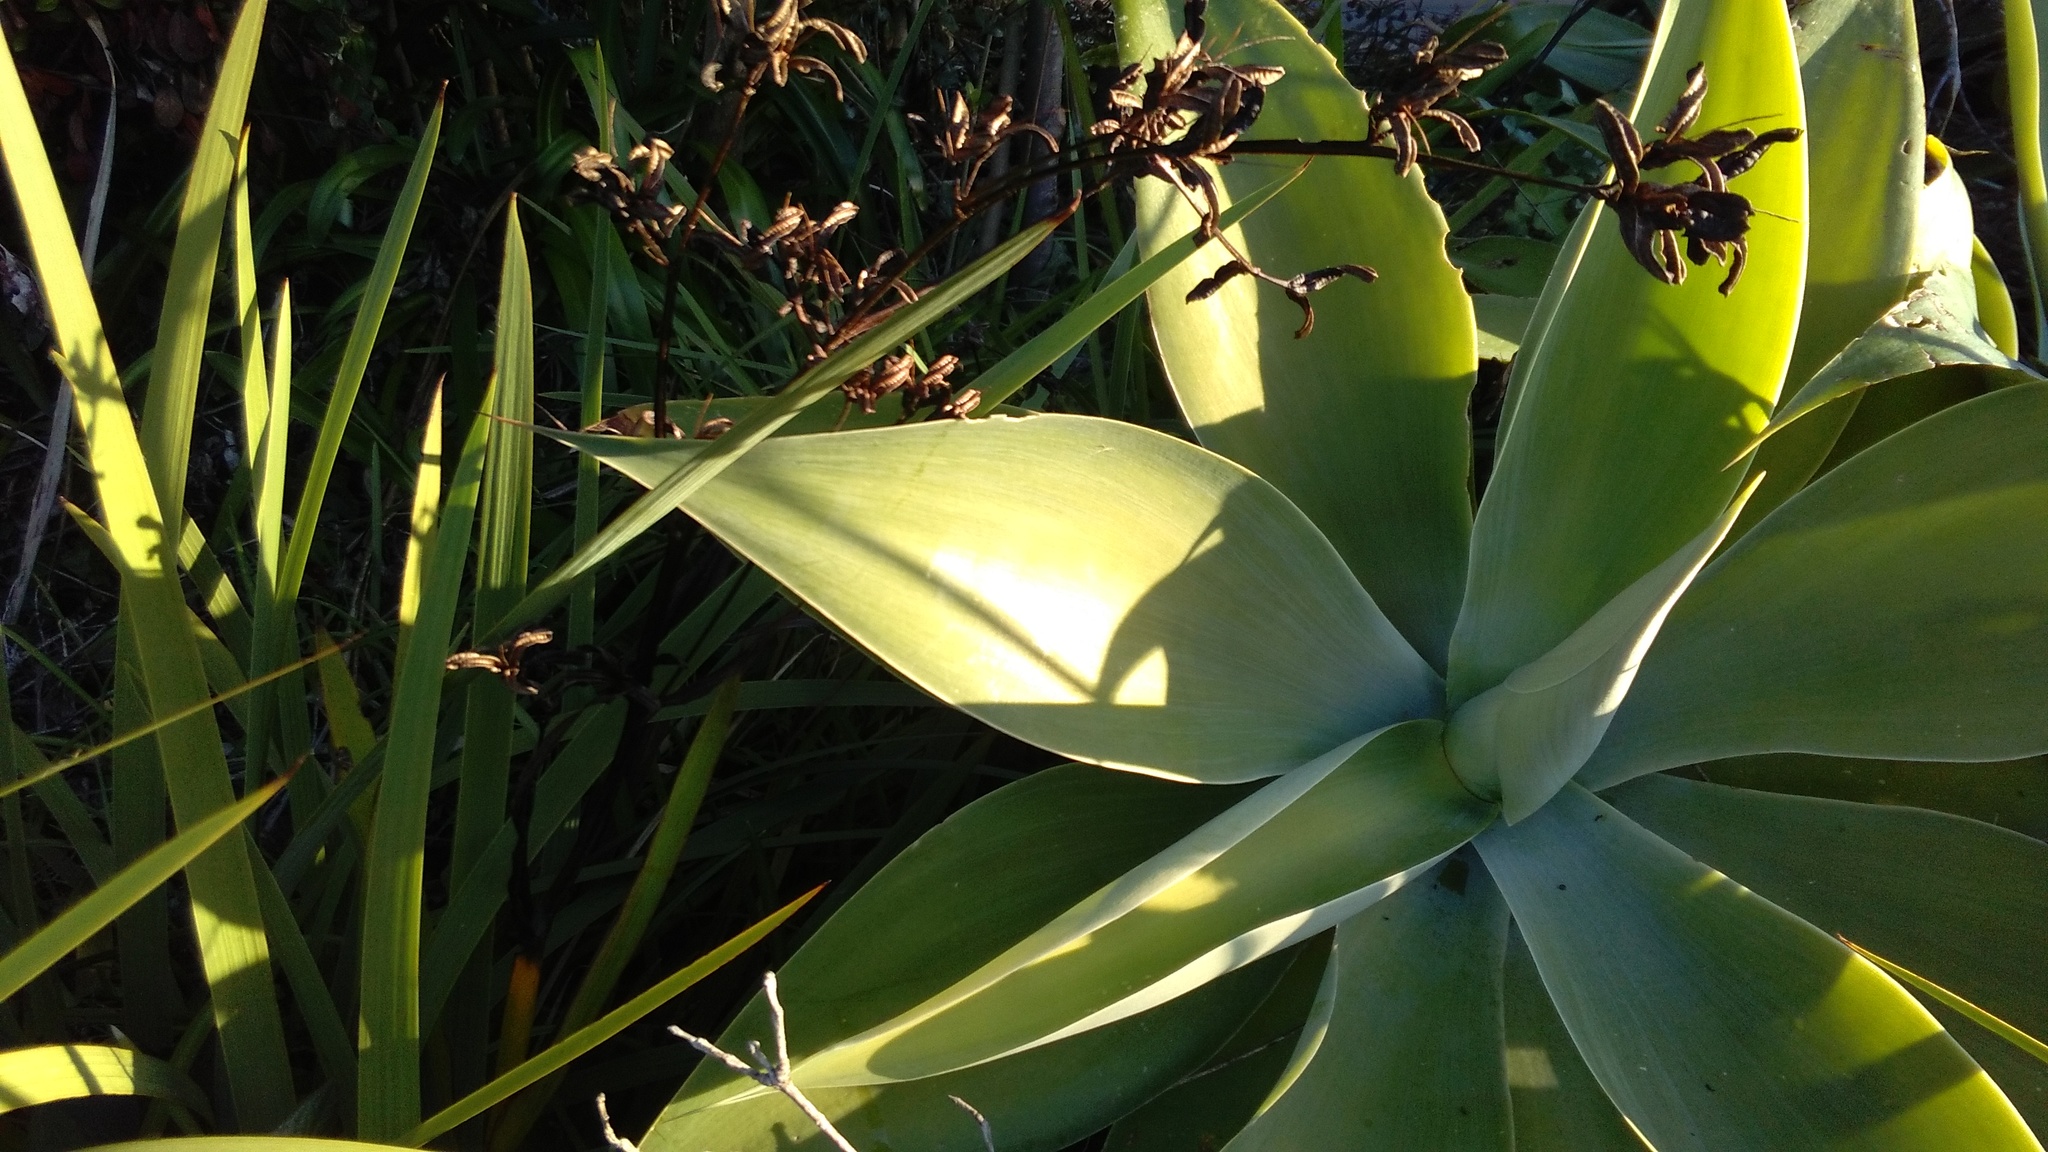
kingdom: Plantae
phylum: Tracheophyta
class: Liliopsida
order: Asparagales
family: Iridaceae
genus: Iris
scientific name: Iris foetidissima
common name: Stinking iris
